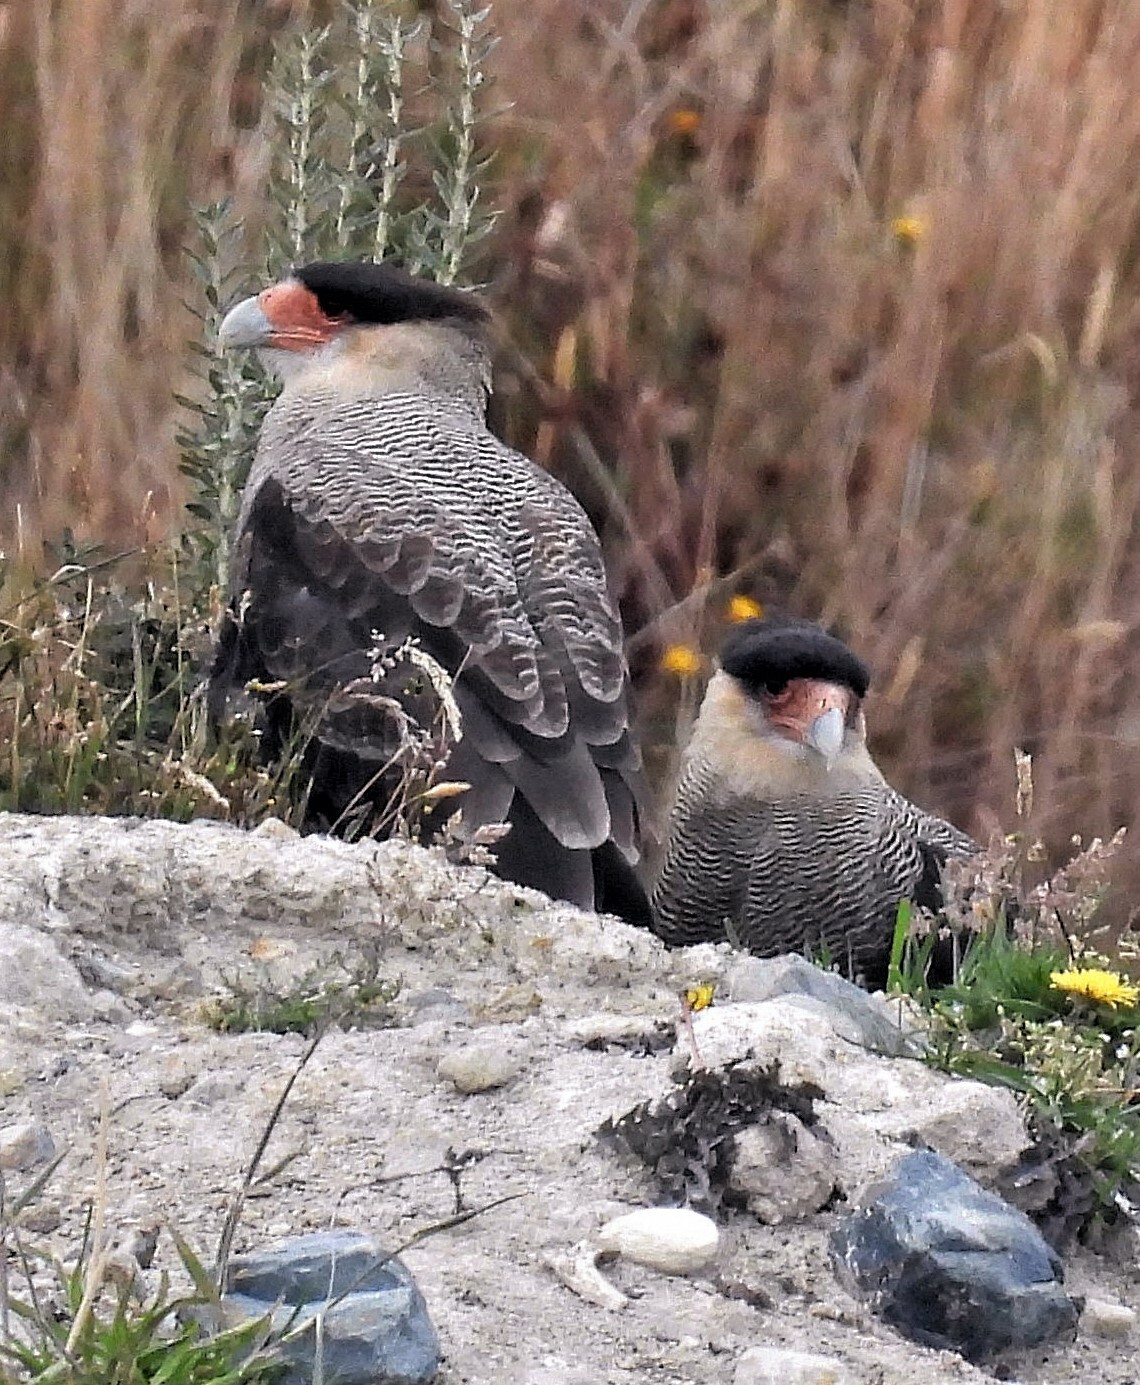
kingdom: Animalia
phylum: Chordata
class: Aves
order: Falconiformes
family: Falconidae
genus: Caracara
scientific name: Caracara plancus
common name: Southern caracara
